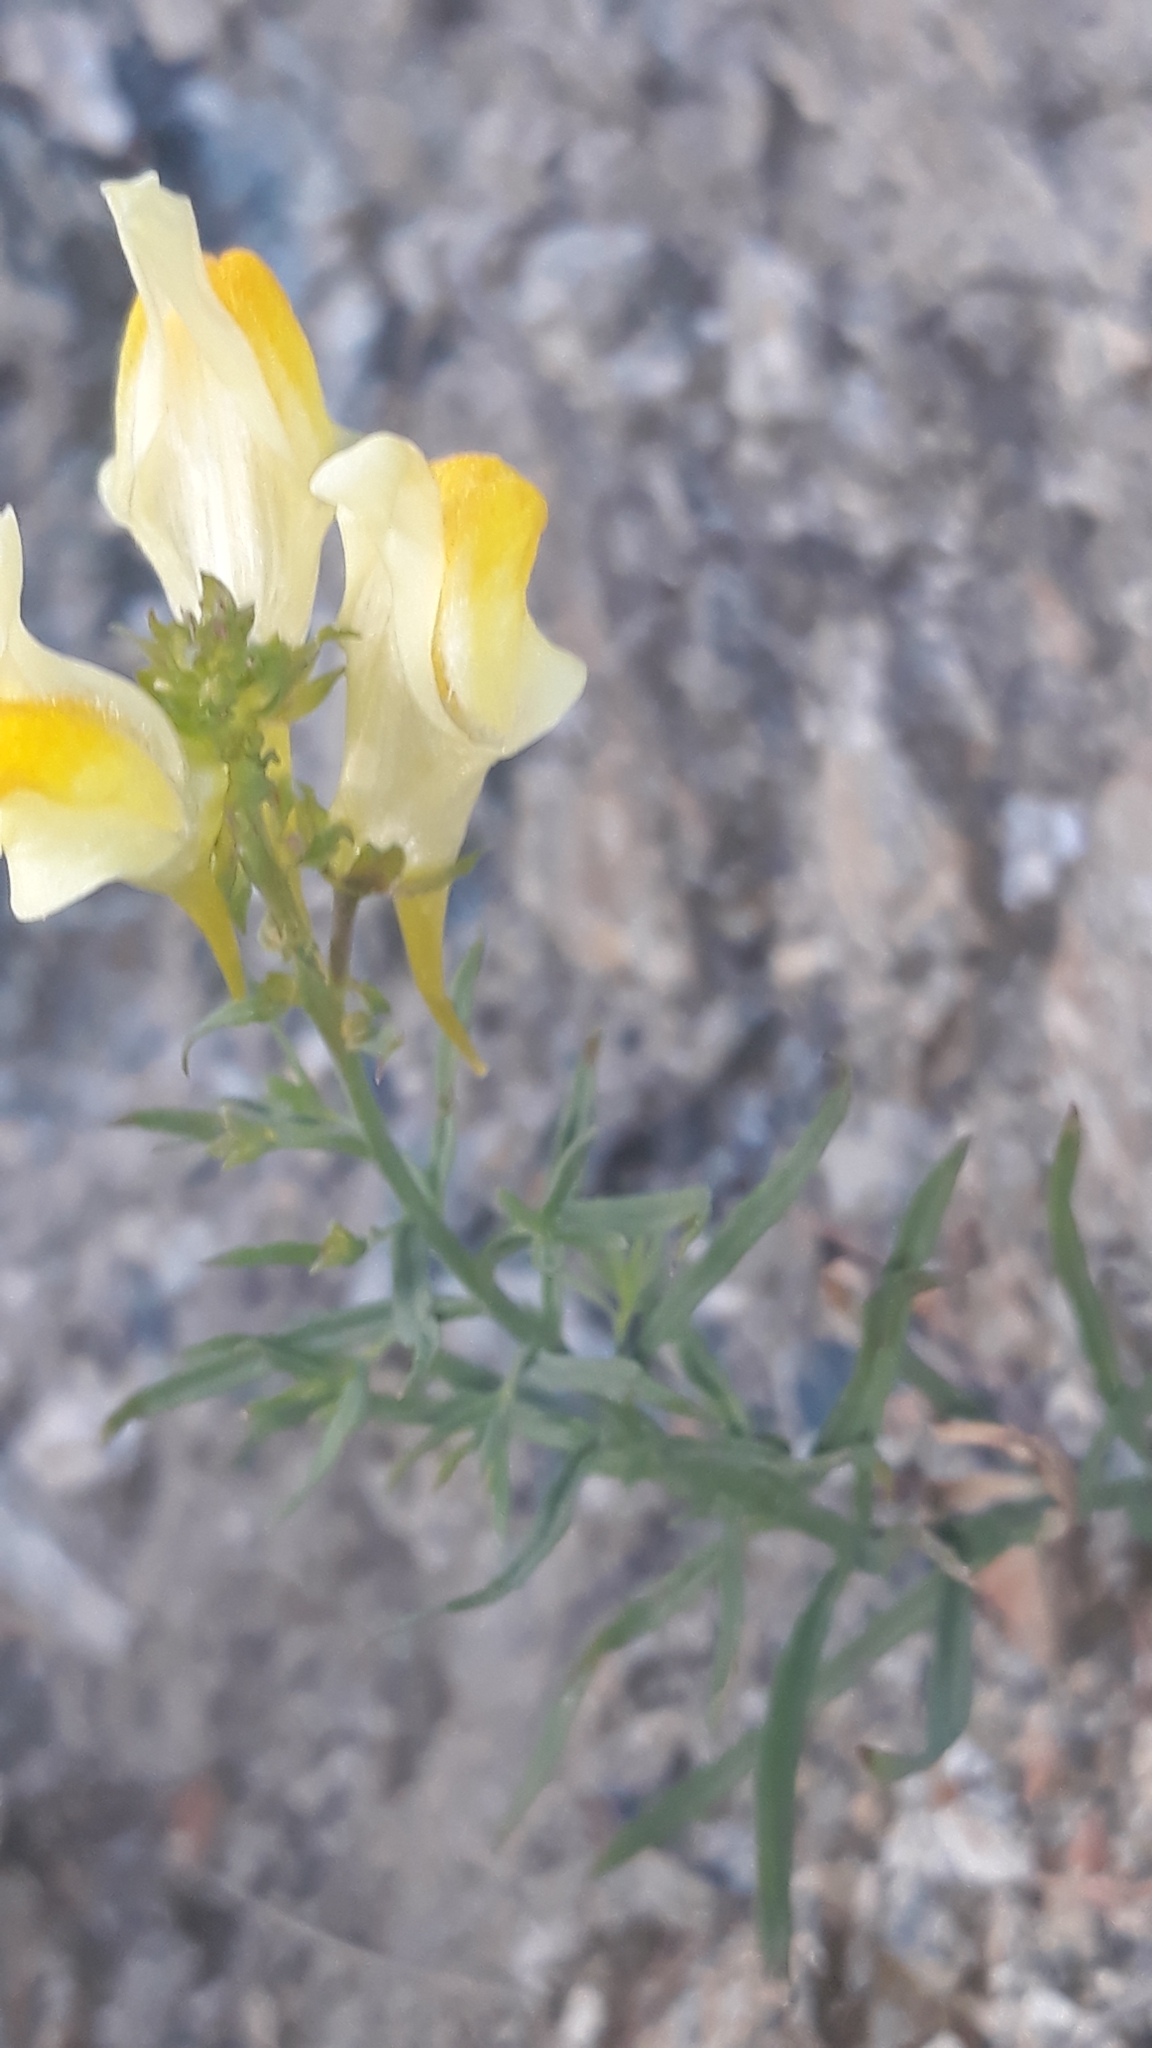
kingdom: Plantae
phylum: Tracheophyta
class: Magnoliopsida
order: Lamiales
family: Plantaginaceae
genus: Linaria
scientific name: Linaria vulgaris
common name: Butter and eggs
